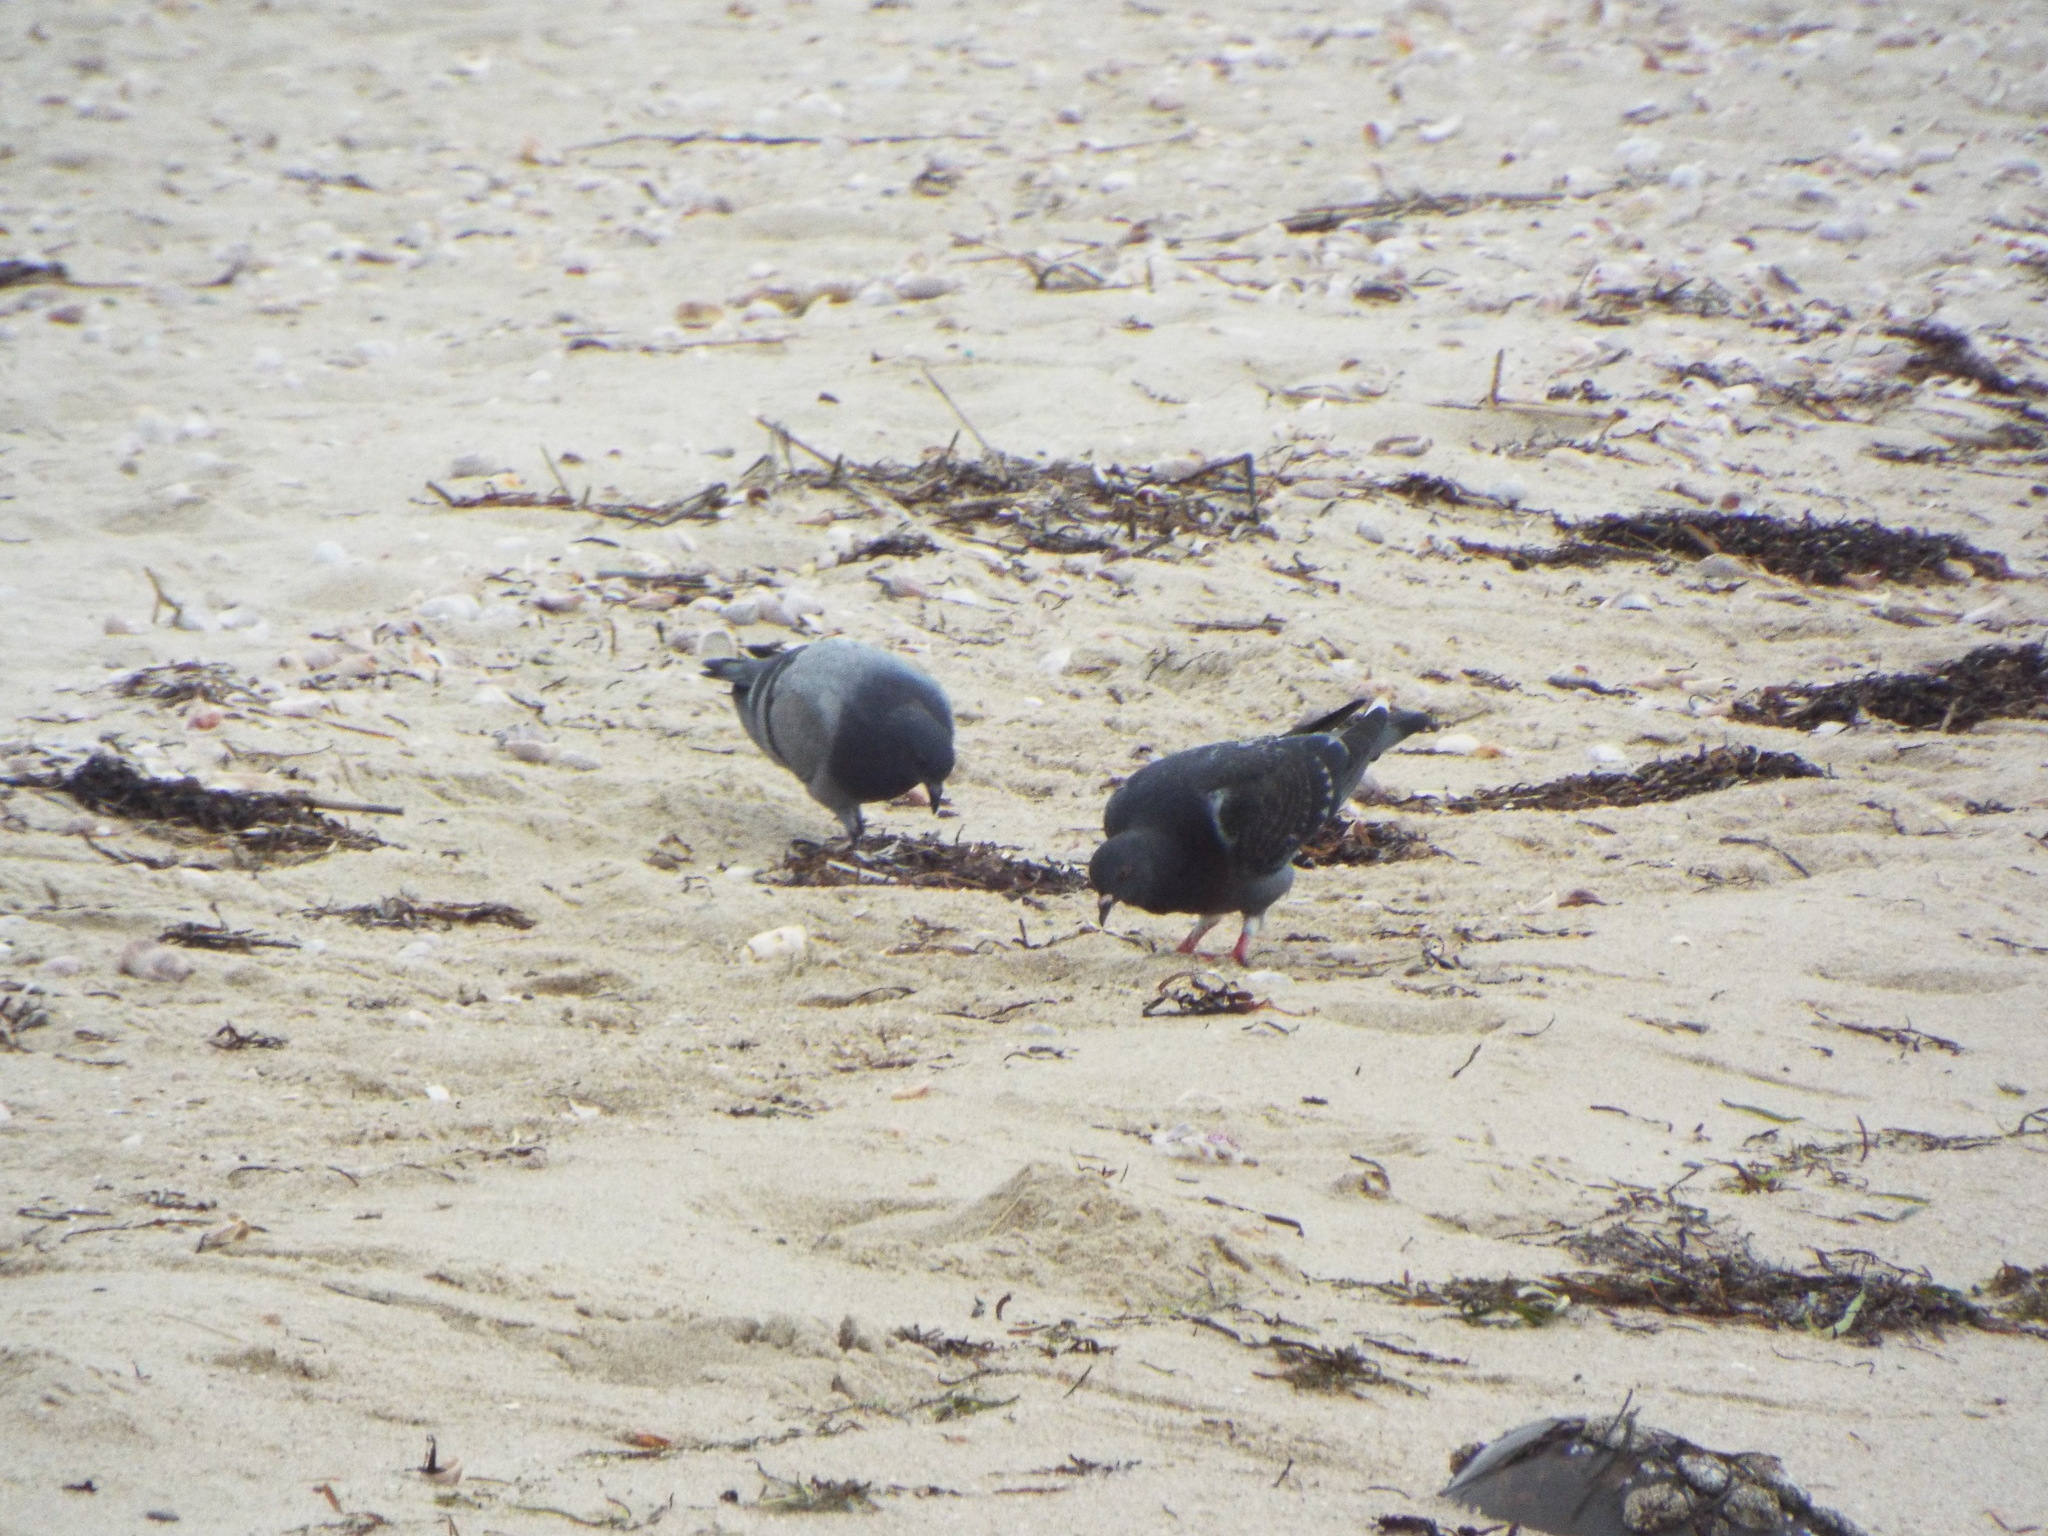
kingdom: Animalia
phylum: Chordata
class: Aves
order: Columbiformes
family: Columbidae
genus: Columba
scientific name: Columba livia
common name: Rock pigeon
